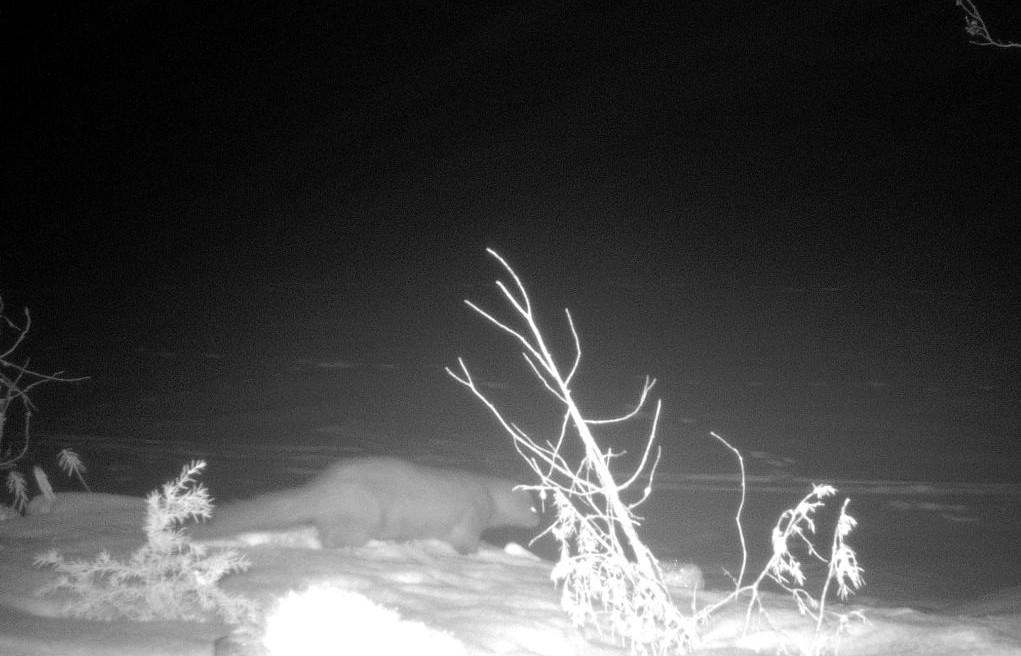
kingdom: Animalia
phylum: Chordata
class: Mammalia
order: Carnivora
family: Mustelidae
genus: Martes
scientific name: Martes martes
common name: European pine marten
